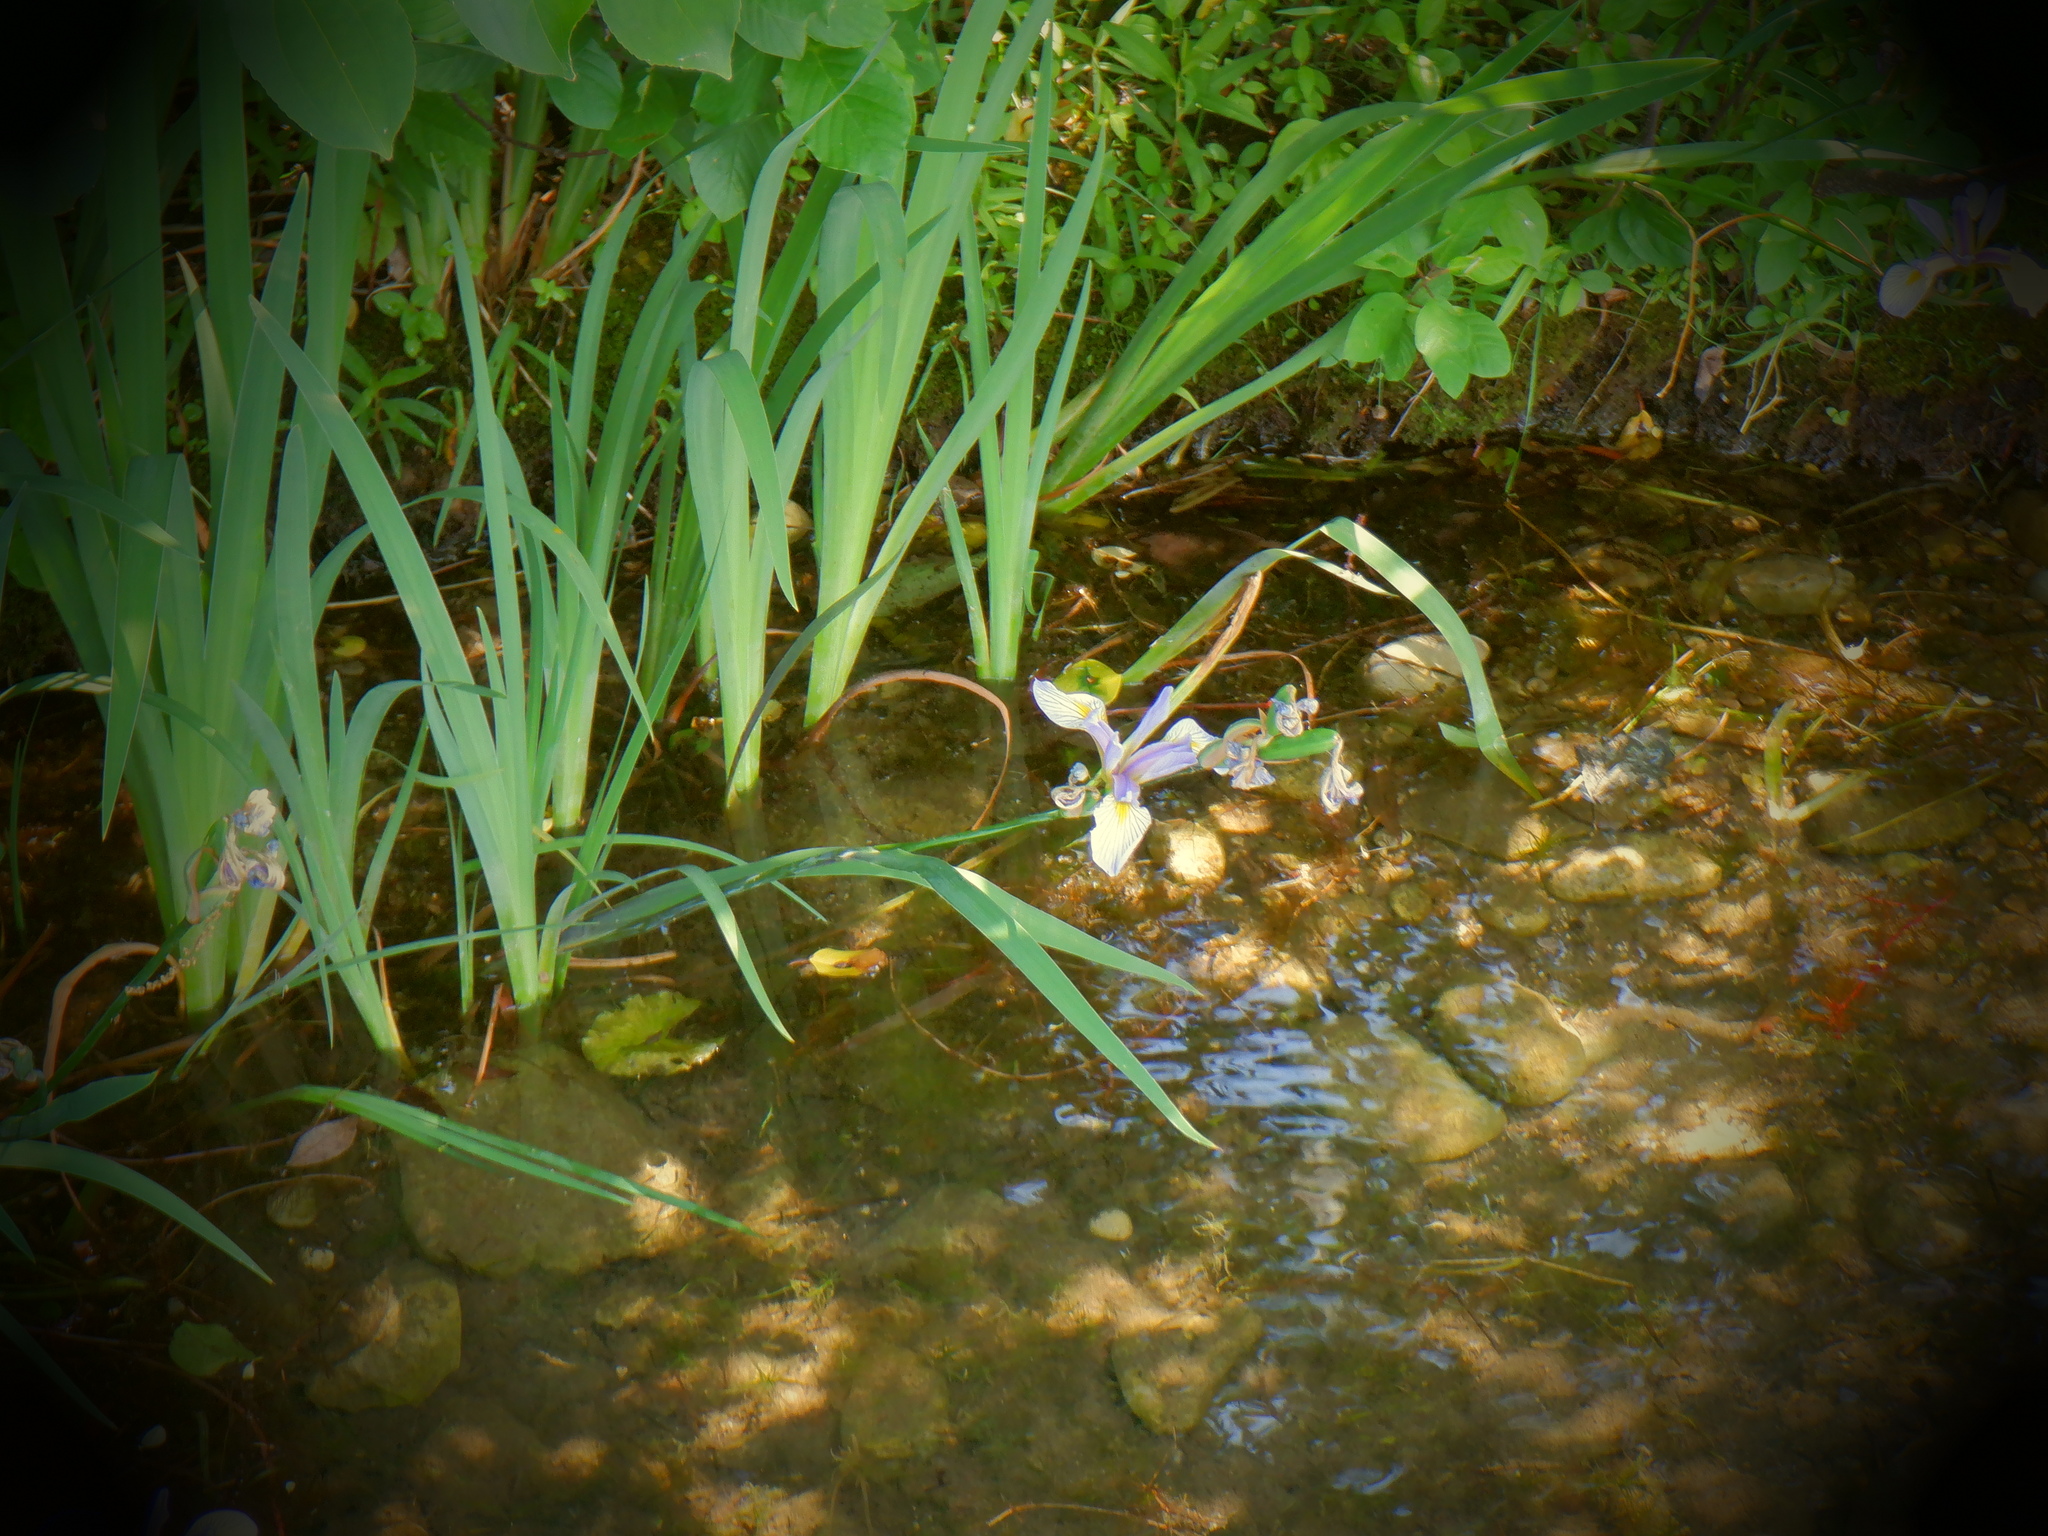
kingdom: Plantae
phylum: Tracheophyta
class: Liliopsida
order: Asparagales
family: Iridaceae
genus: Iris
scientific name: Iris virginica
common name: Southern blue flag
